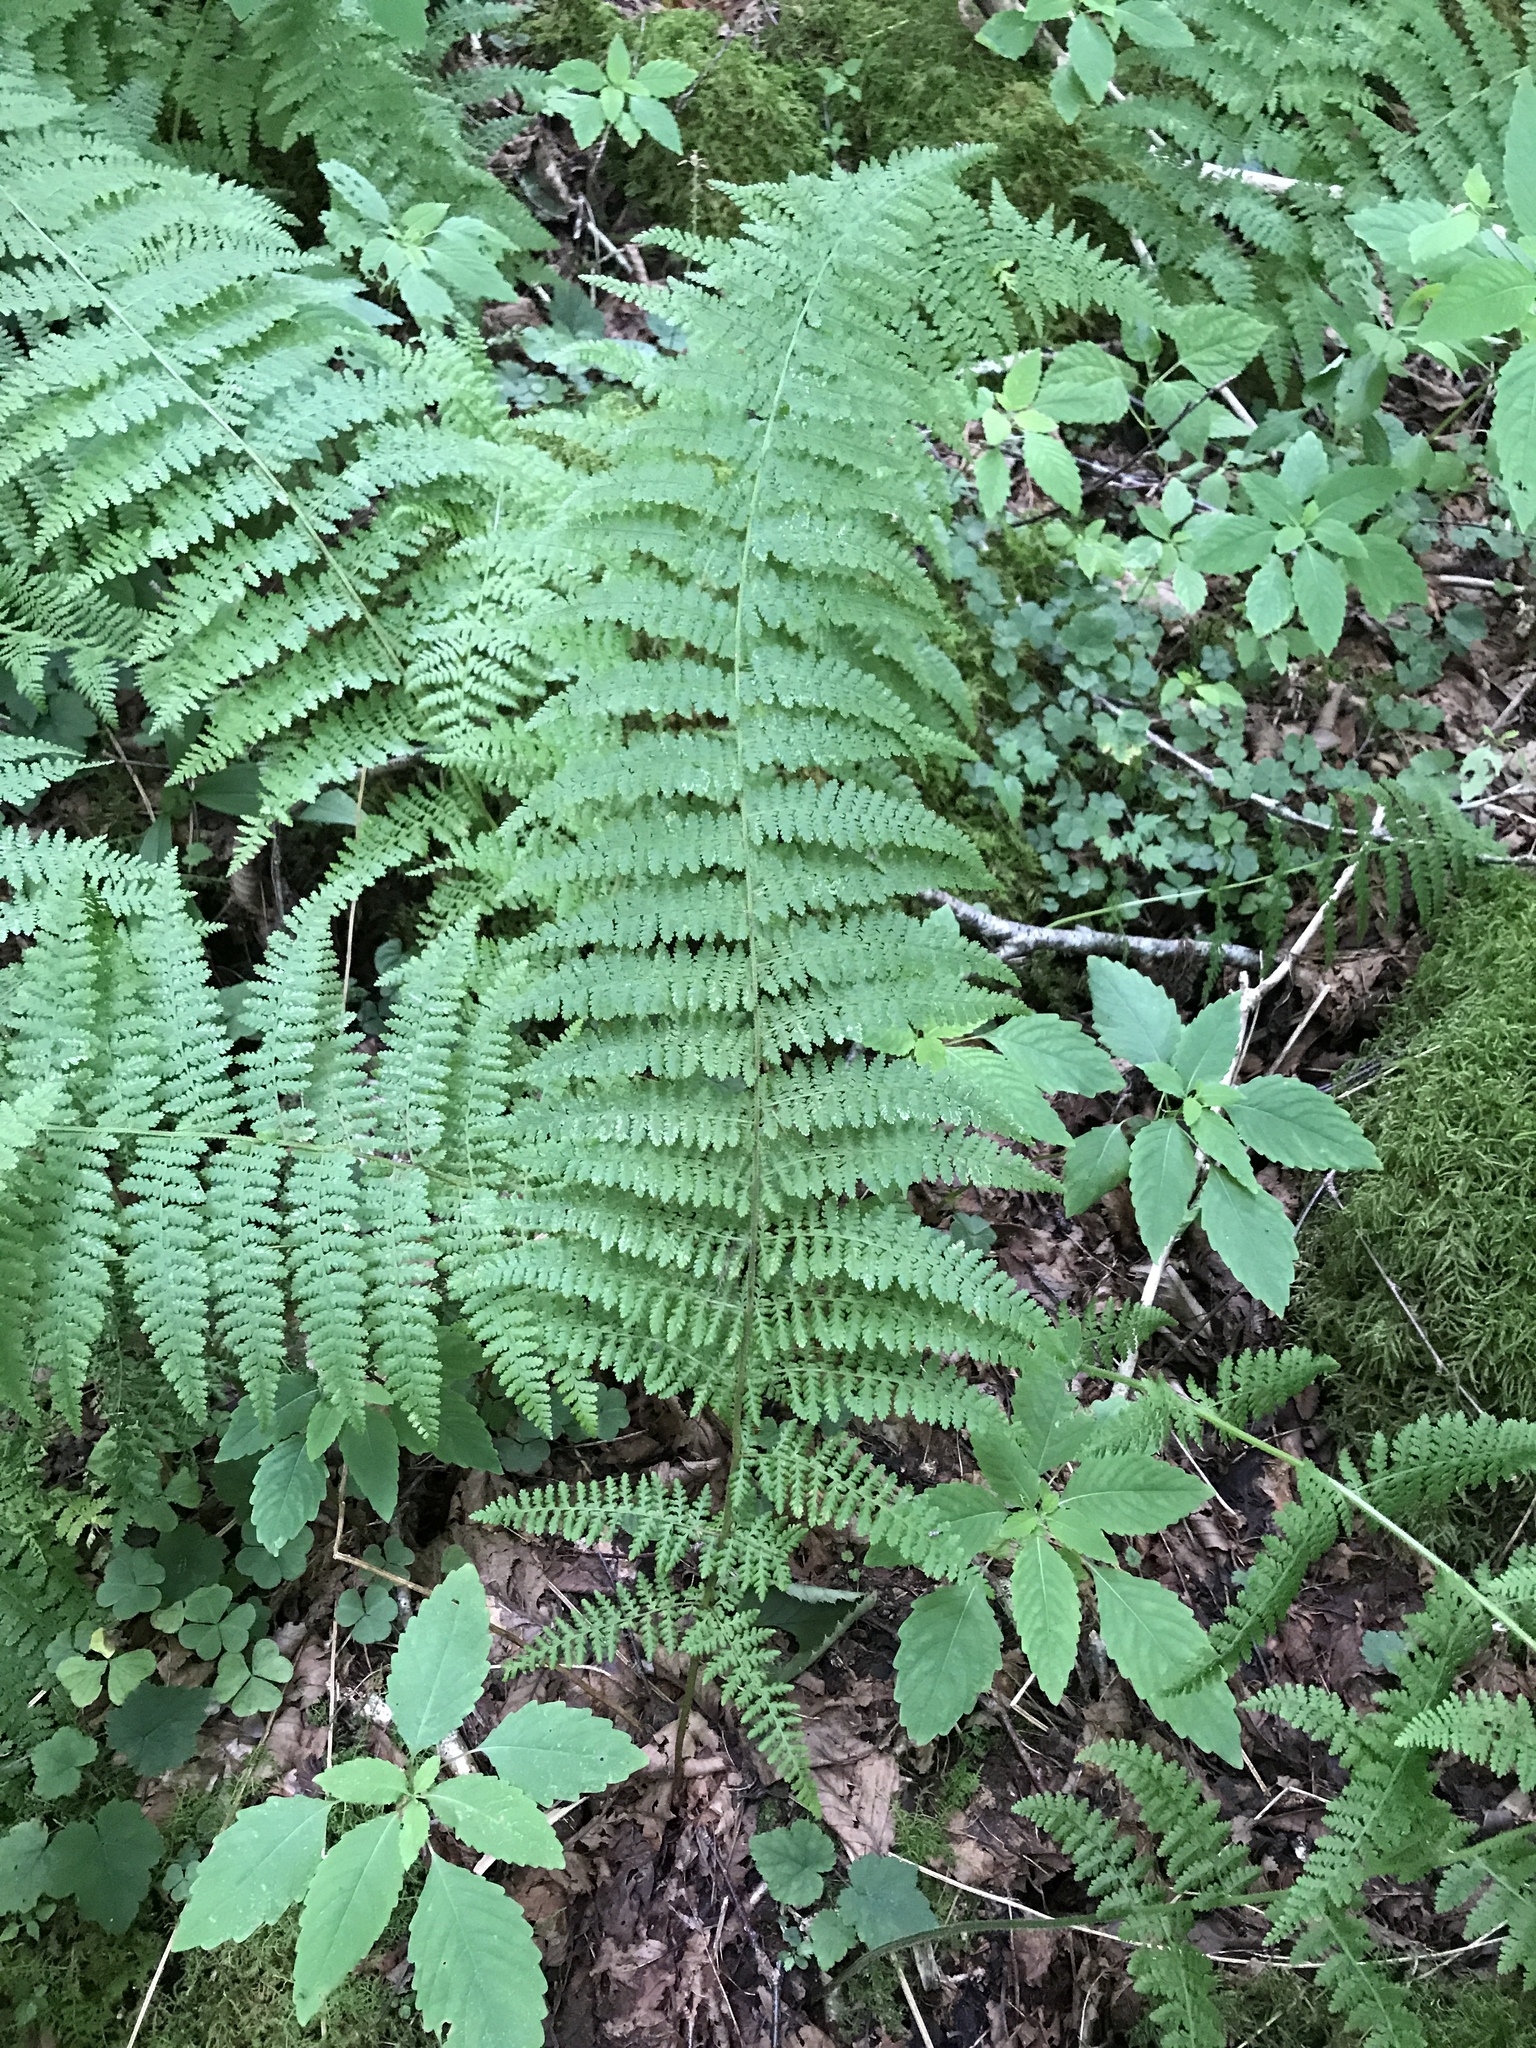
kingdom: Plantae
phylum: Tracheophyta
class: Polypodiopsida
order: Polypodiales
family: Dennstaedtiaceae
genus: Sitobolium
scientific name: Sitobolium punctilobum
